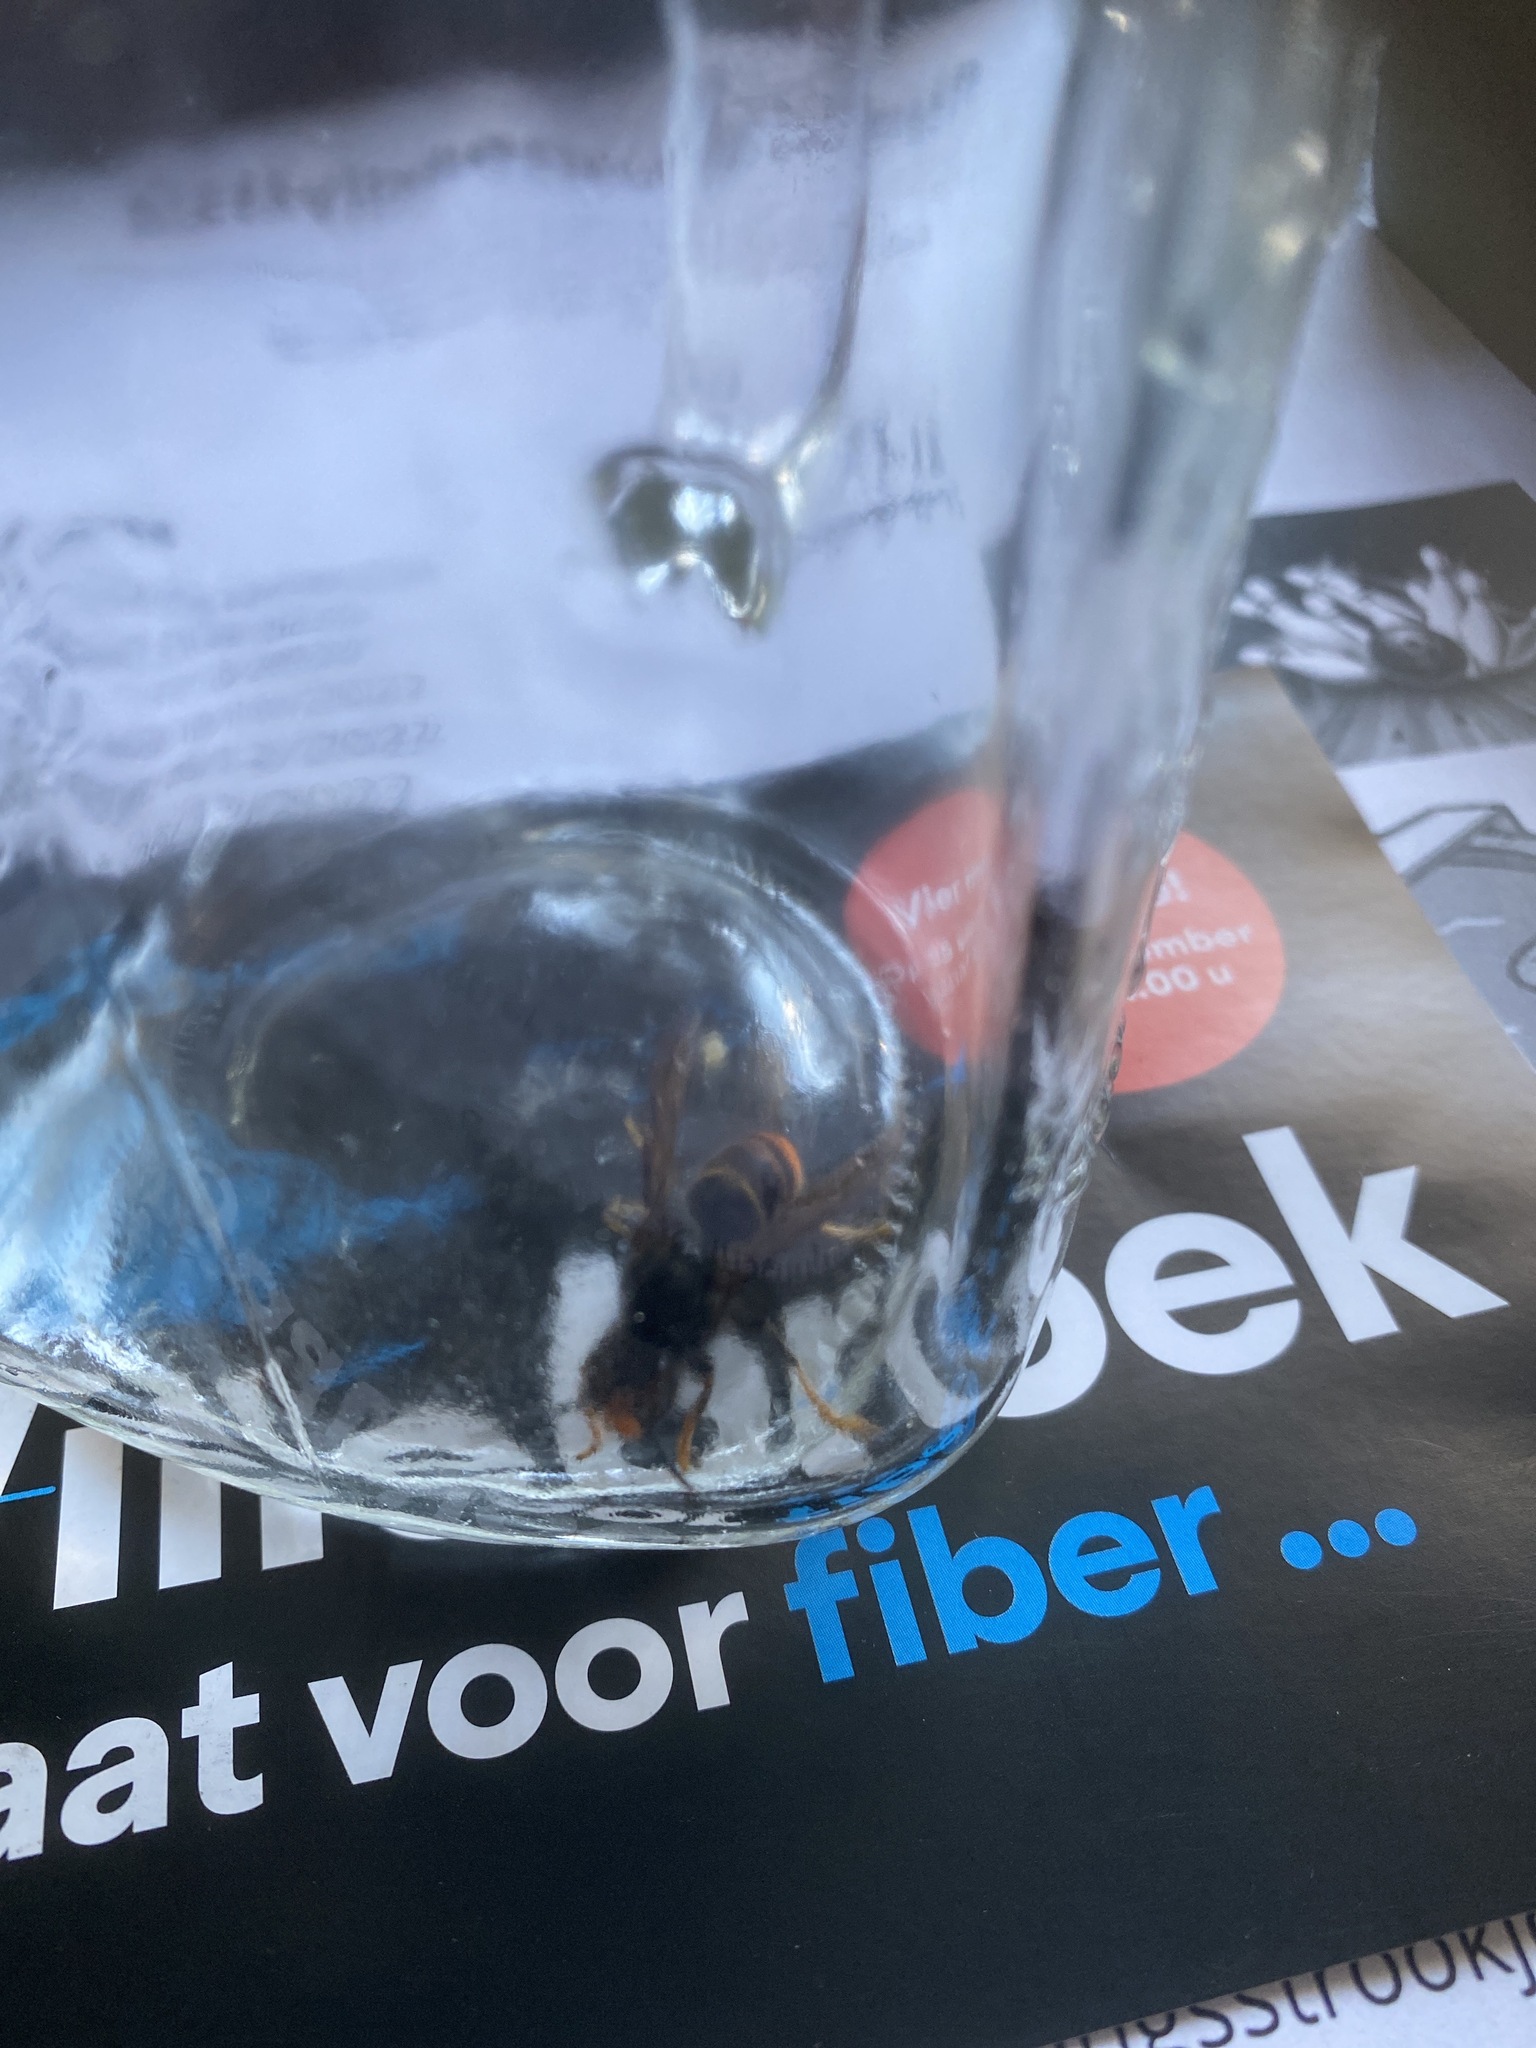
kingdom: Animalia
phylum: Arthropoda
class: Insecta
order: Hymenoptera
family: Vespidae
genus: Vespa
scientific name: Vespa velutina
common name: Asian hornet
